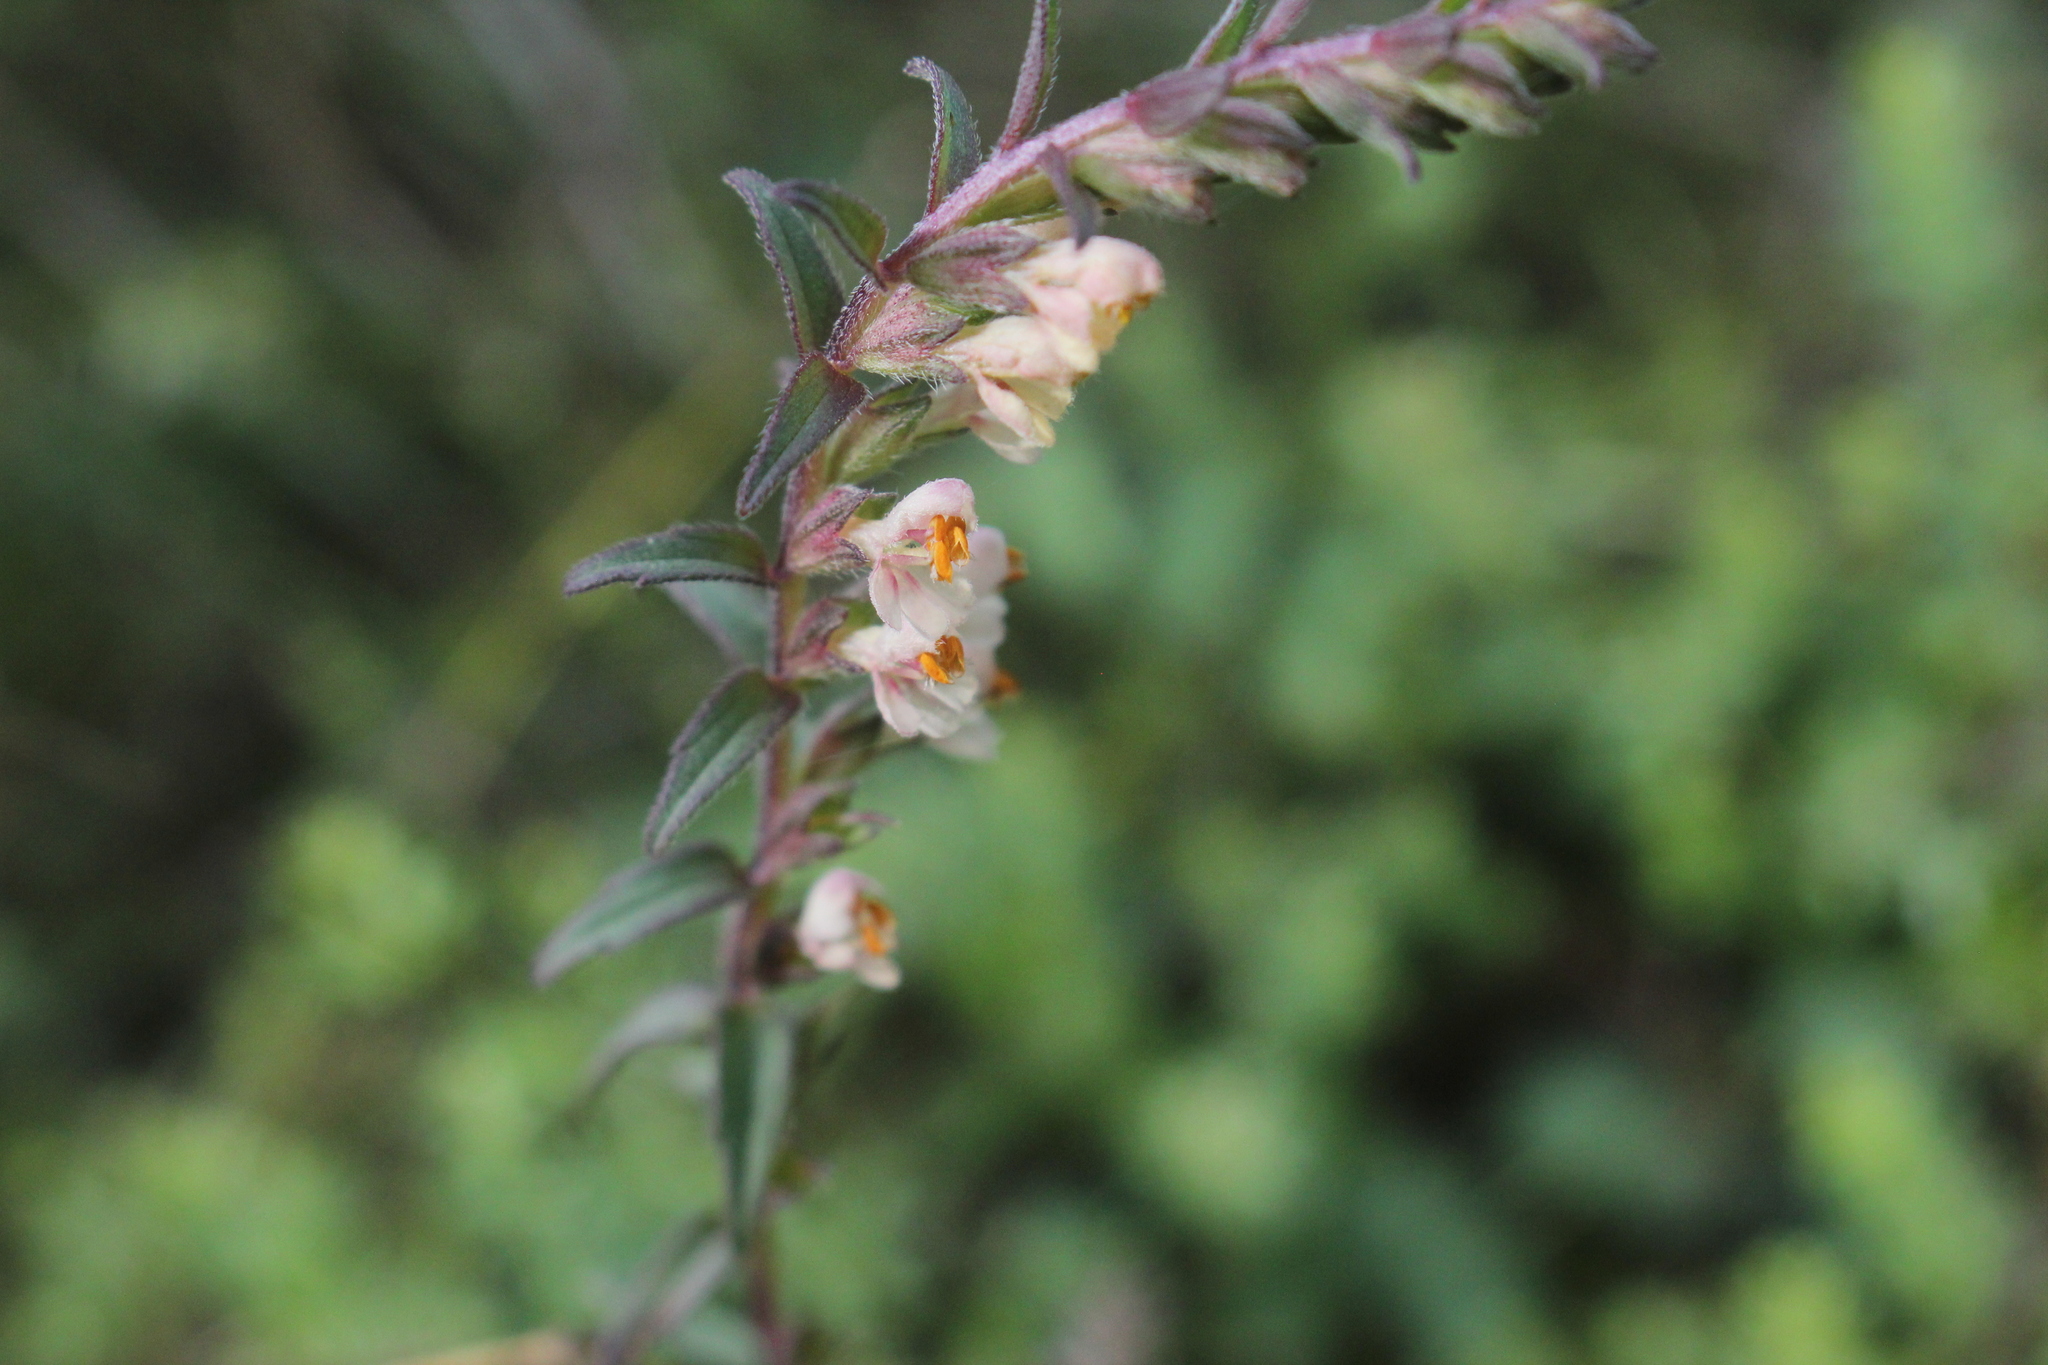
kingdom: Plantae
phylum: Tracheophyta
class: Magnoliopsida
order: Lamiales
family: Orobanchaceae
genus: Odontites
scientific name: Odontites vulgaris
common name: Broomrape
